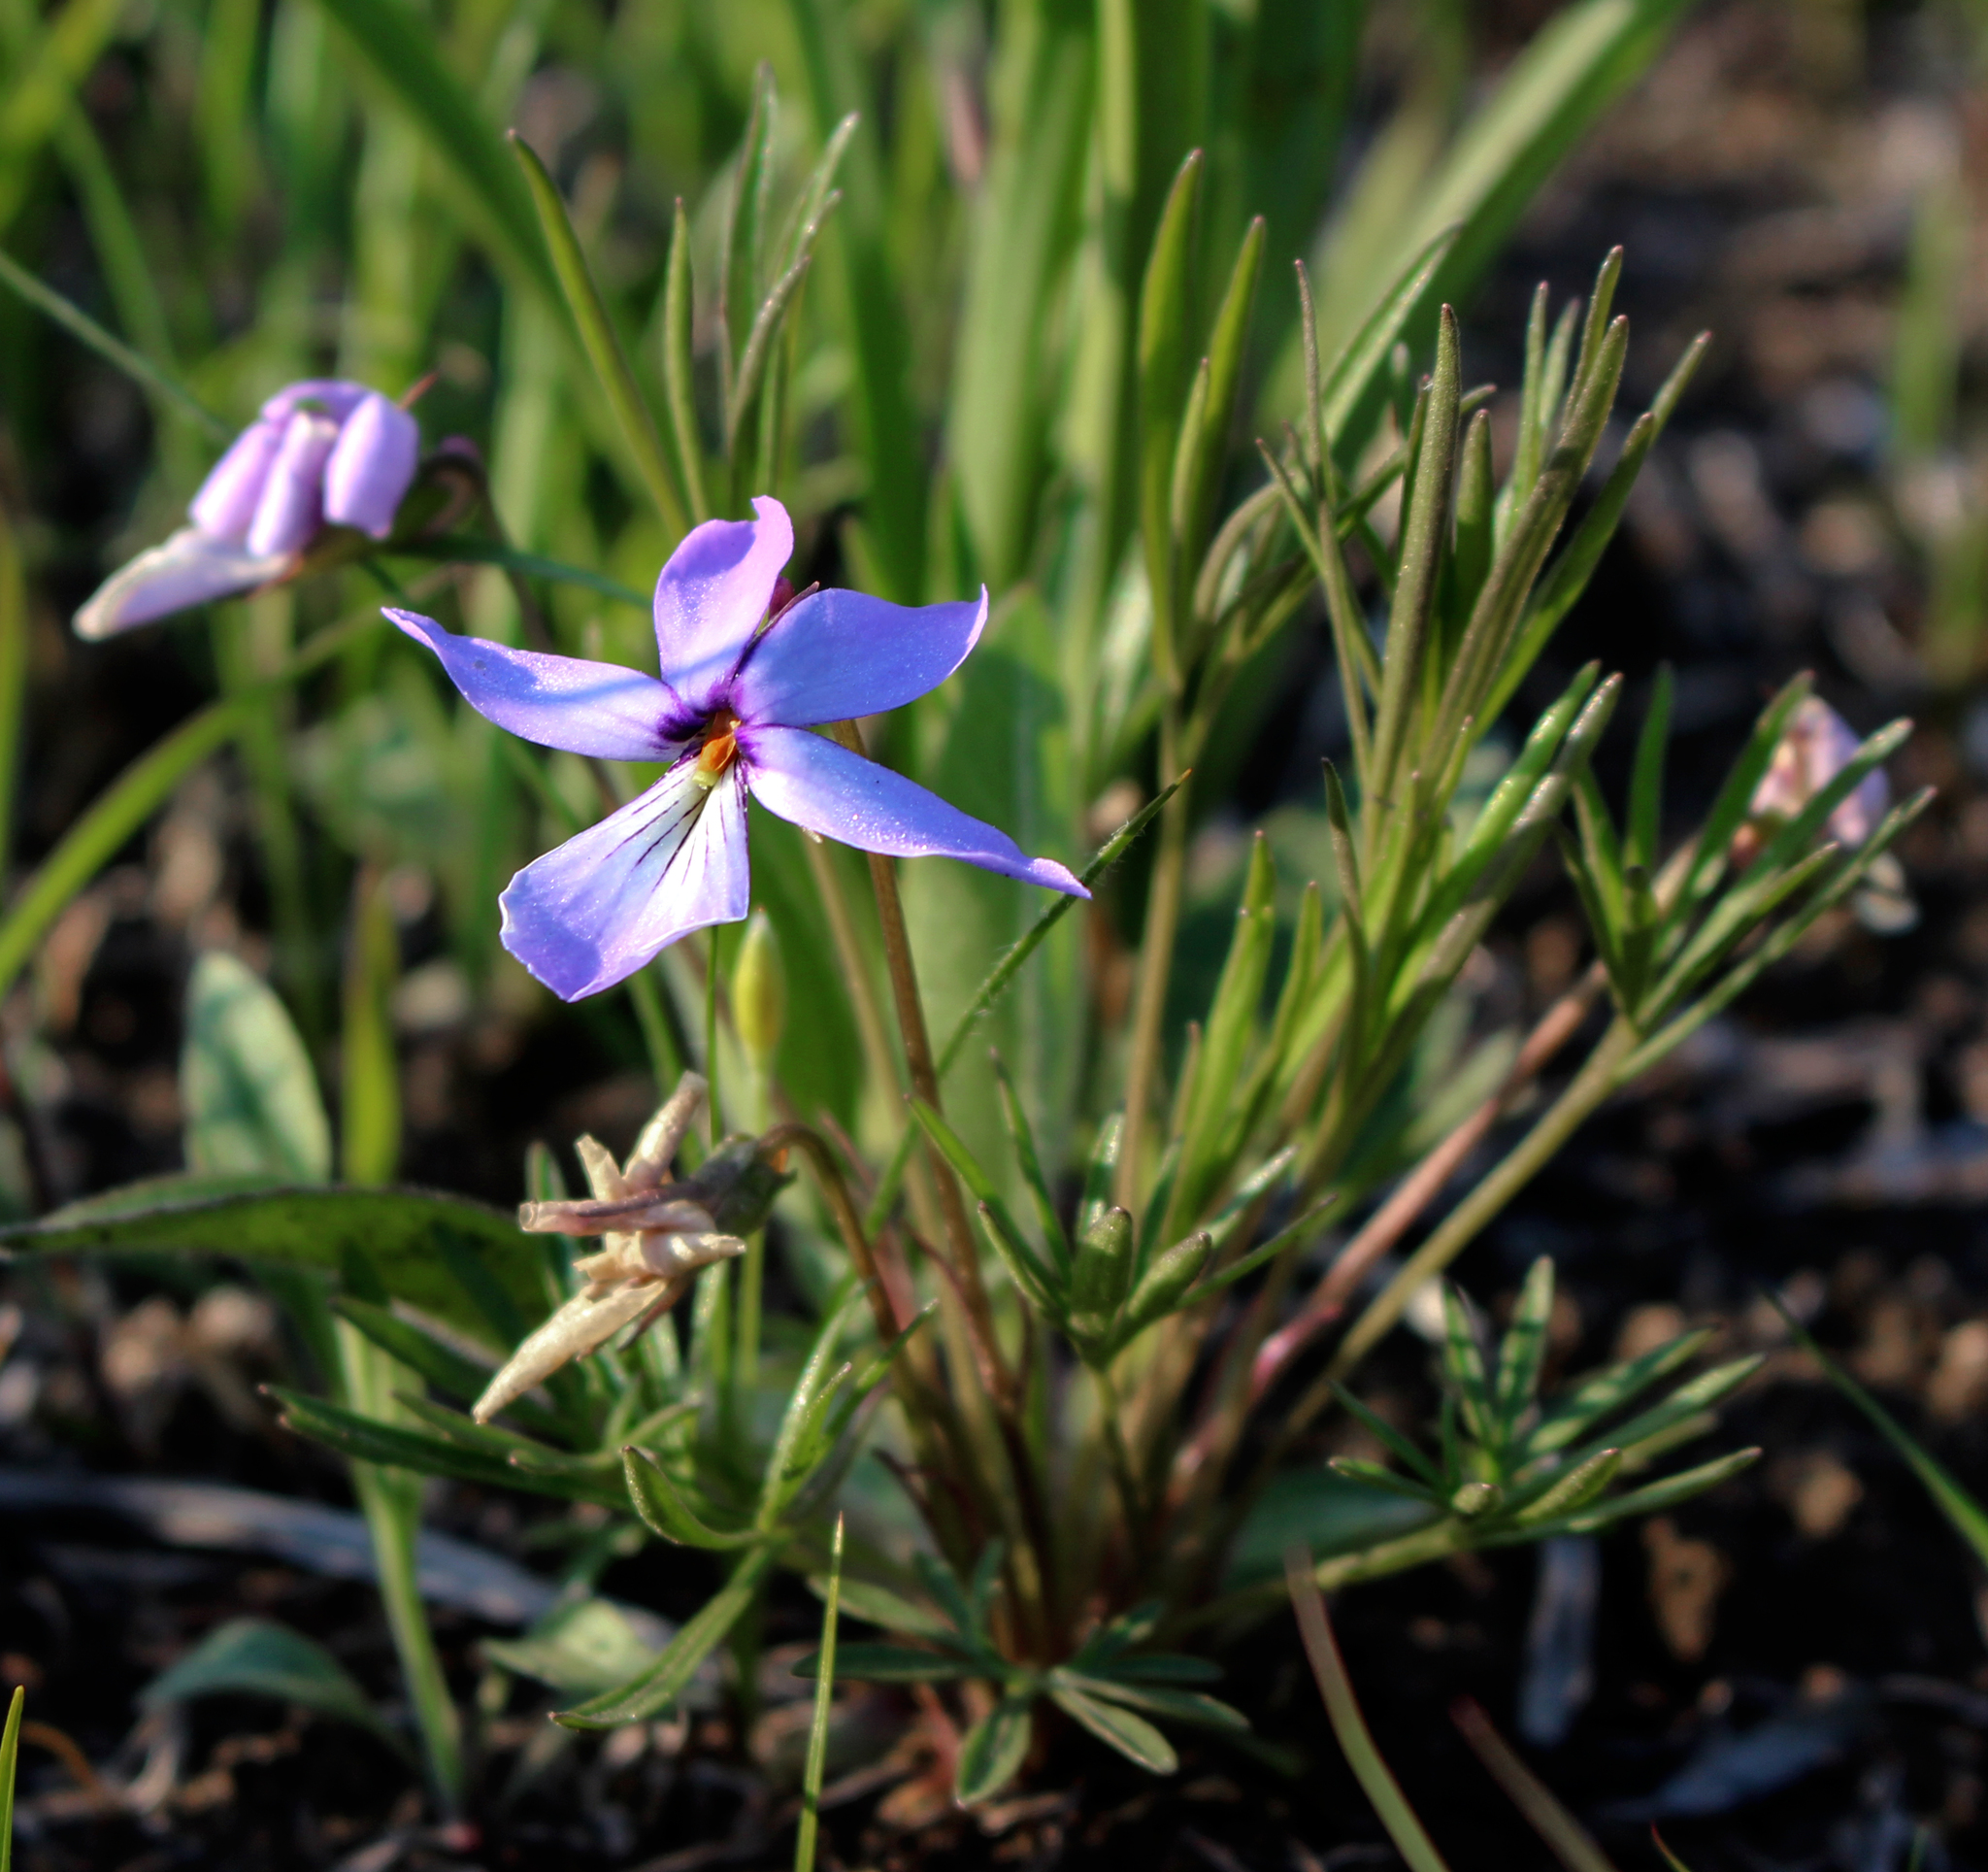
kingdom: Plantae
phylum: Tracheophyta
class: Magnoliopsida
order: Malpighiales
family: Violaceae
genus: Viola
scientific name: Viola pedata
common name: Pansy violet
